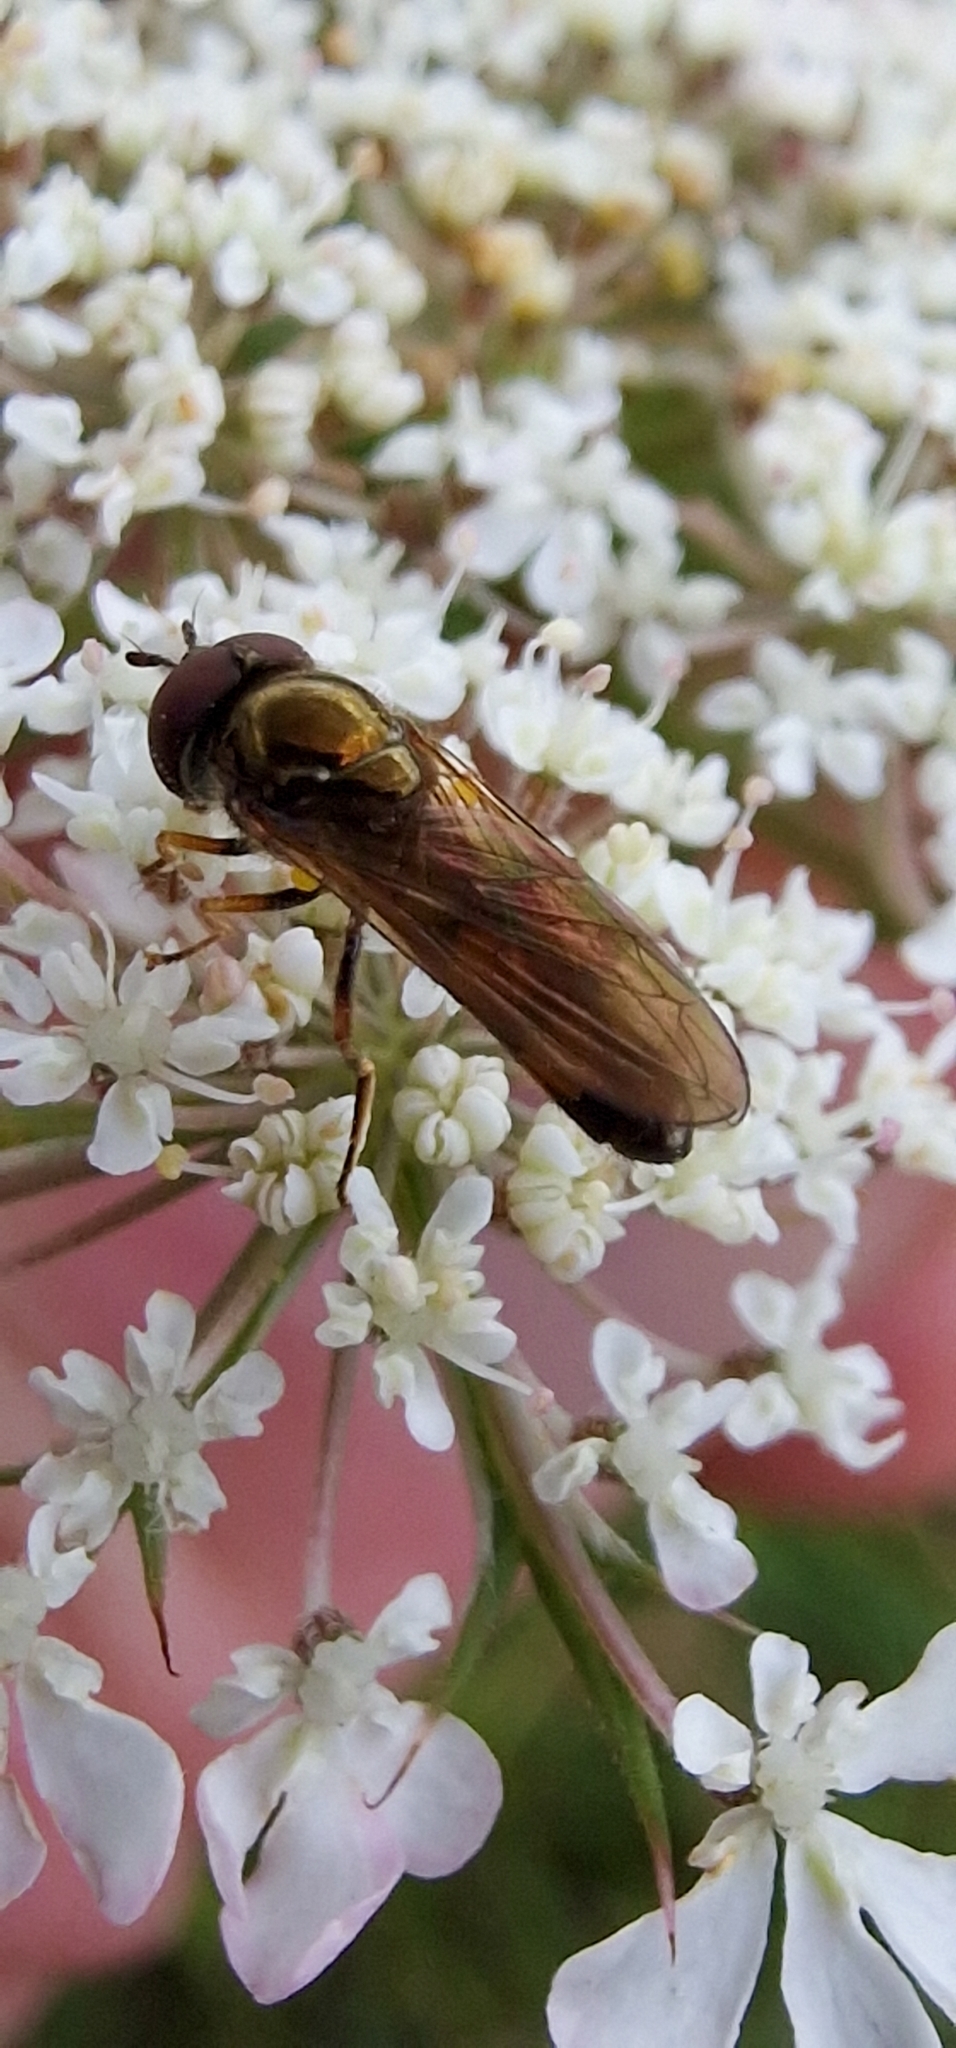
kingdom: Animalia
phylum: Arthropoda
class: Insecta
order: Diptera
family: Syrphidae
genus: Melanostoma
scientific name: Melanostoma mellina
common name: Hover fly
